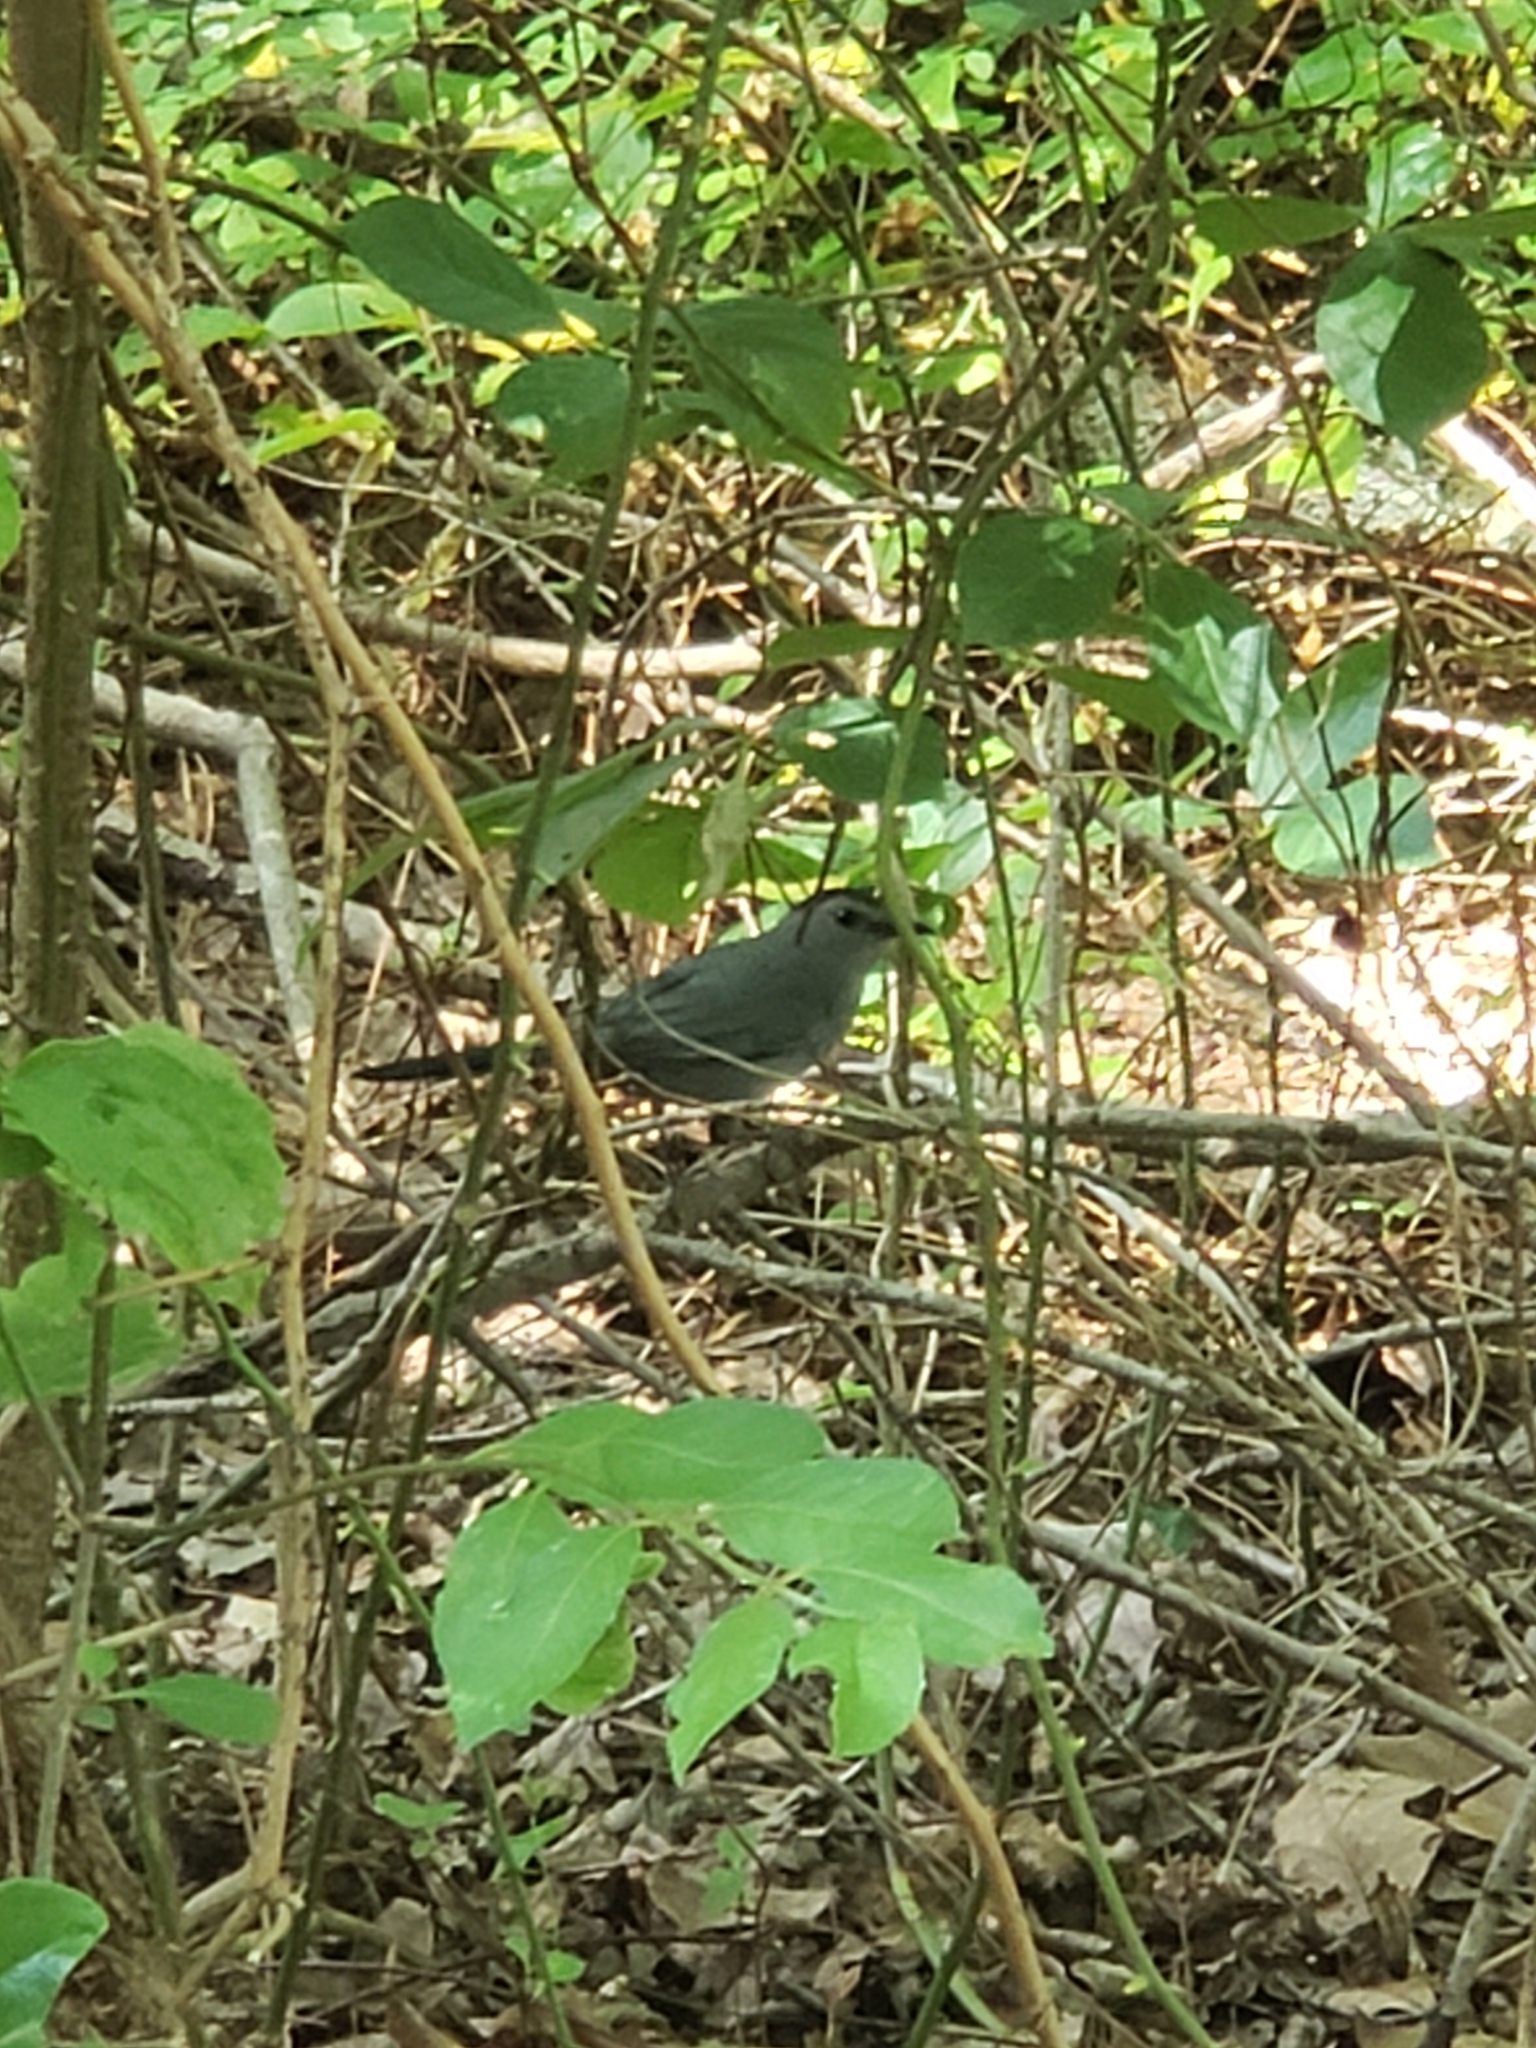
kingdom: Animalia
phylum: Chordata
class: Aves
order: Passeriformes
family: Mimidae
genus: Dumetella
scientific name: Dumetella carolinensis
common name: Gray catbird
